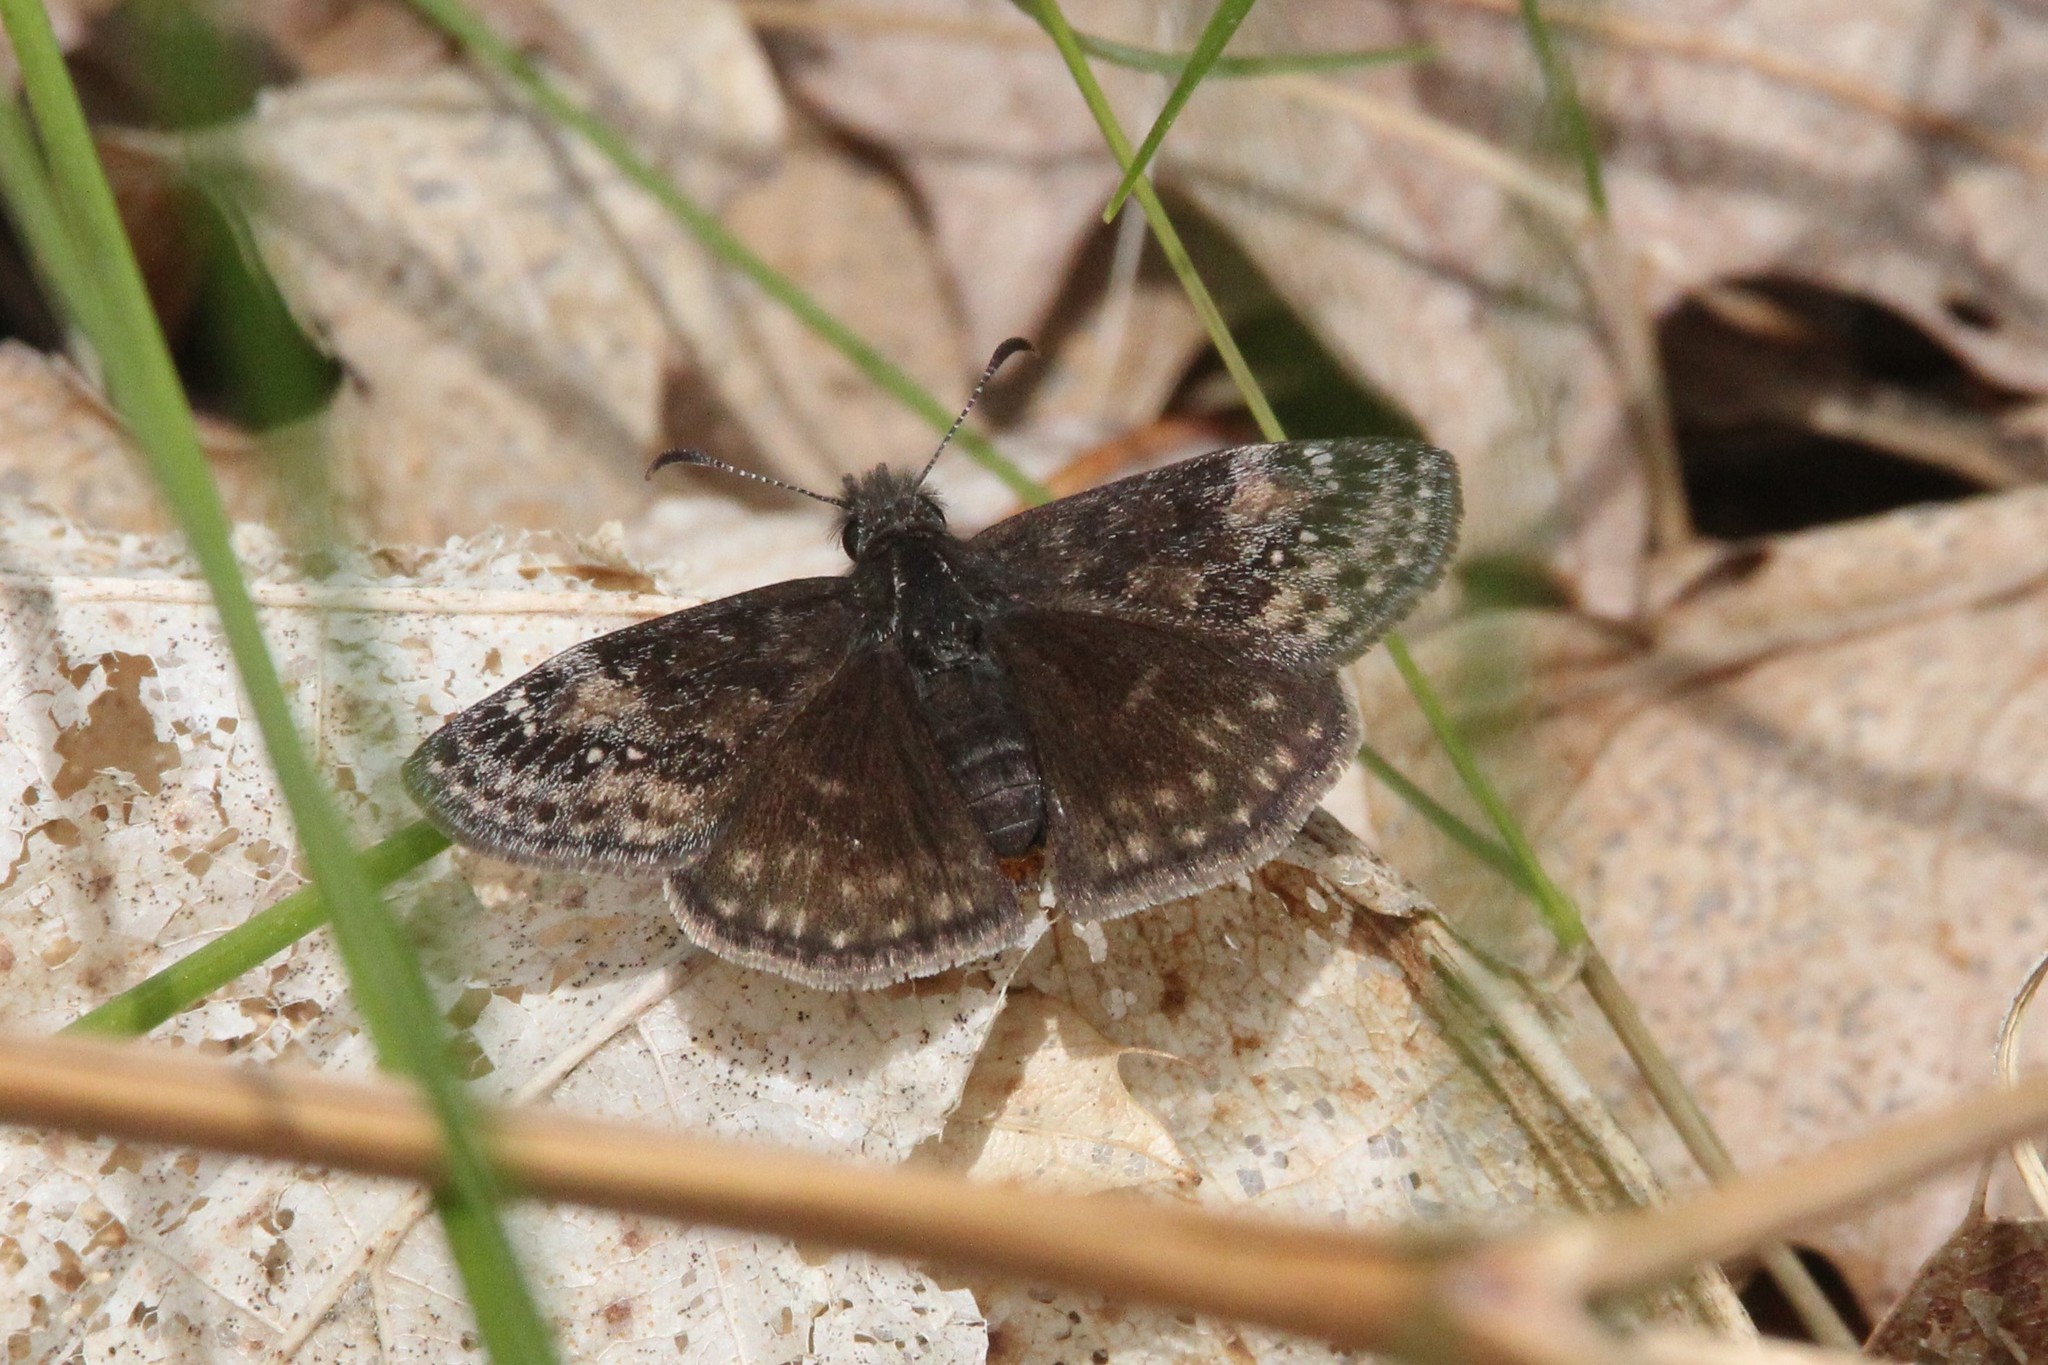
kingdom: Animalia
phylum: Arthropoda
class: Insecta
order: Lepidoptera
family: Hesperiidae
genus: Erynnis
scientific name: Erynnis lucilius
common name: Columbine duskywing
